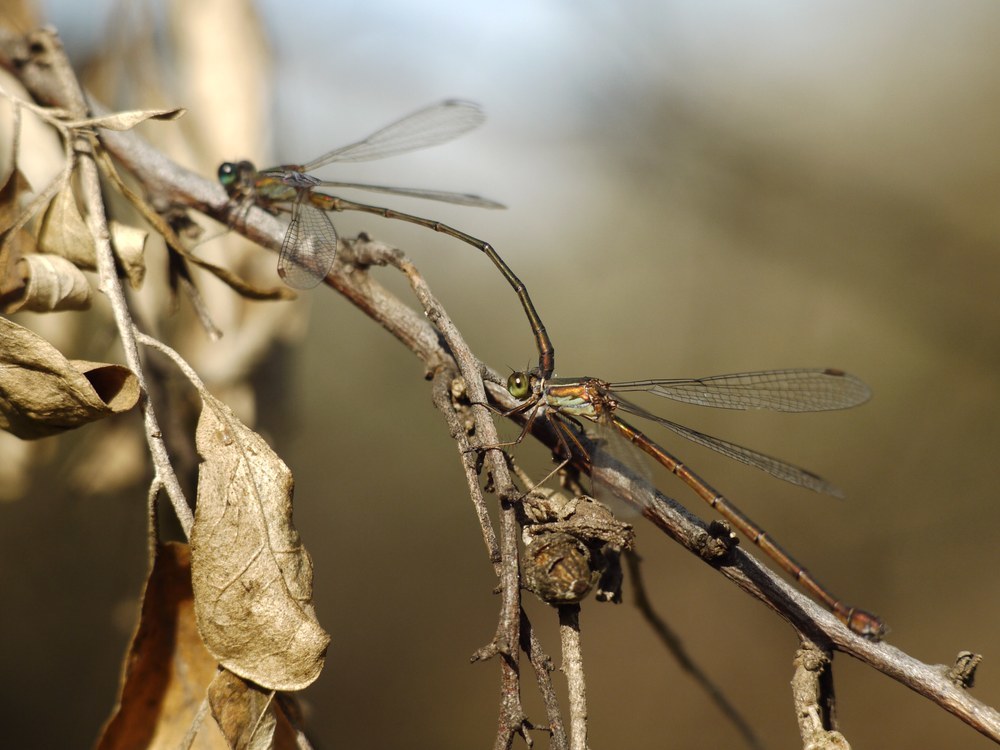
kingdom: Animalia
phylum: Arthropoda
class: Insecta
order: Odonata
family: Lestidae
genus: Chalcolestes
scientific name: Chalcolestes parvidens
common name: Eastern willow spreadwing
